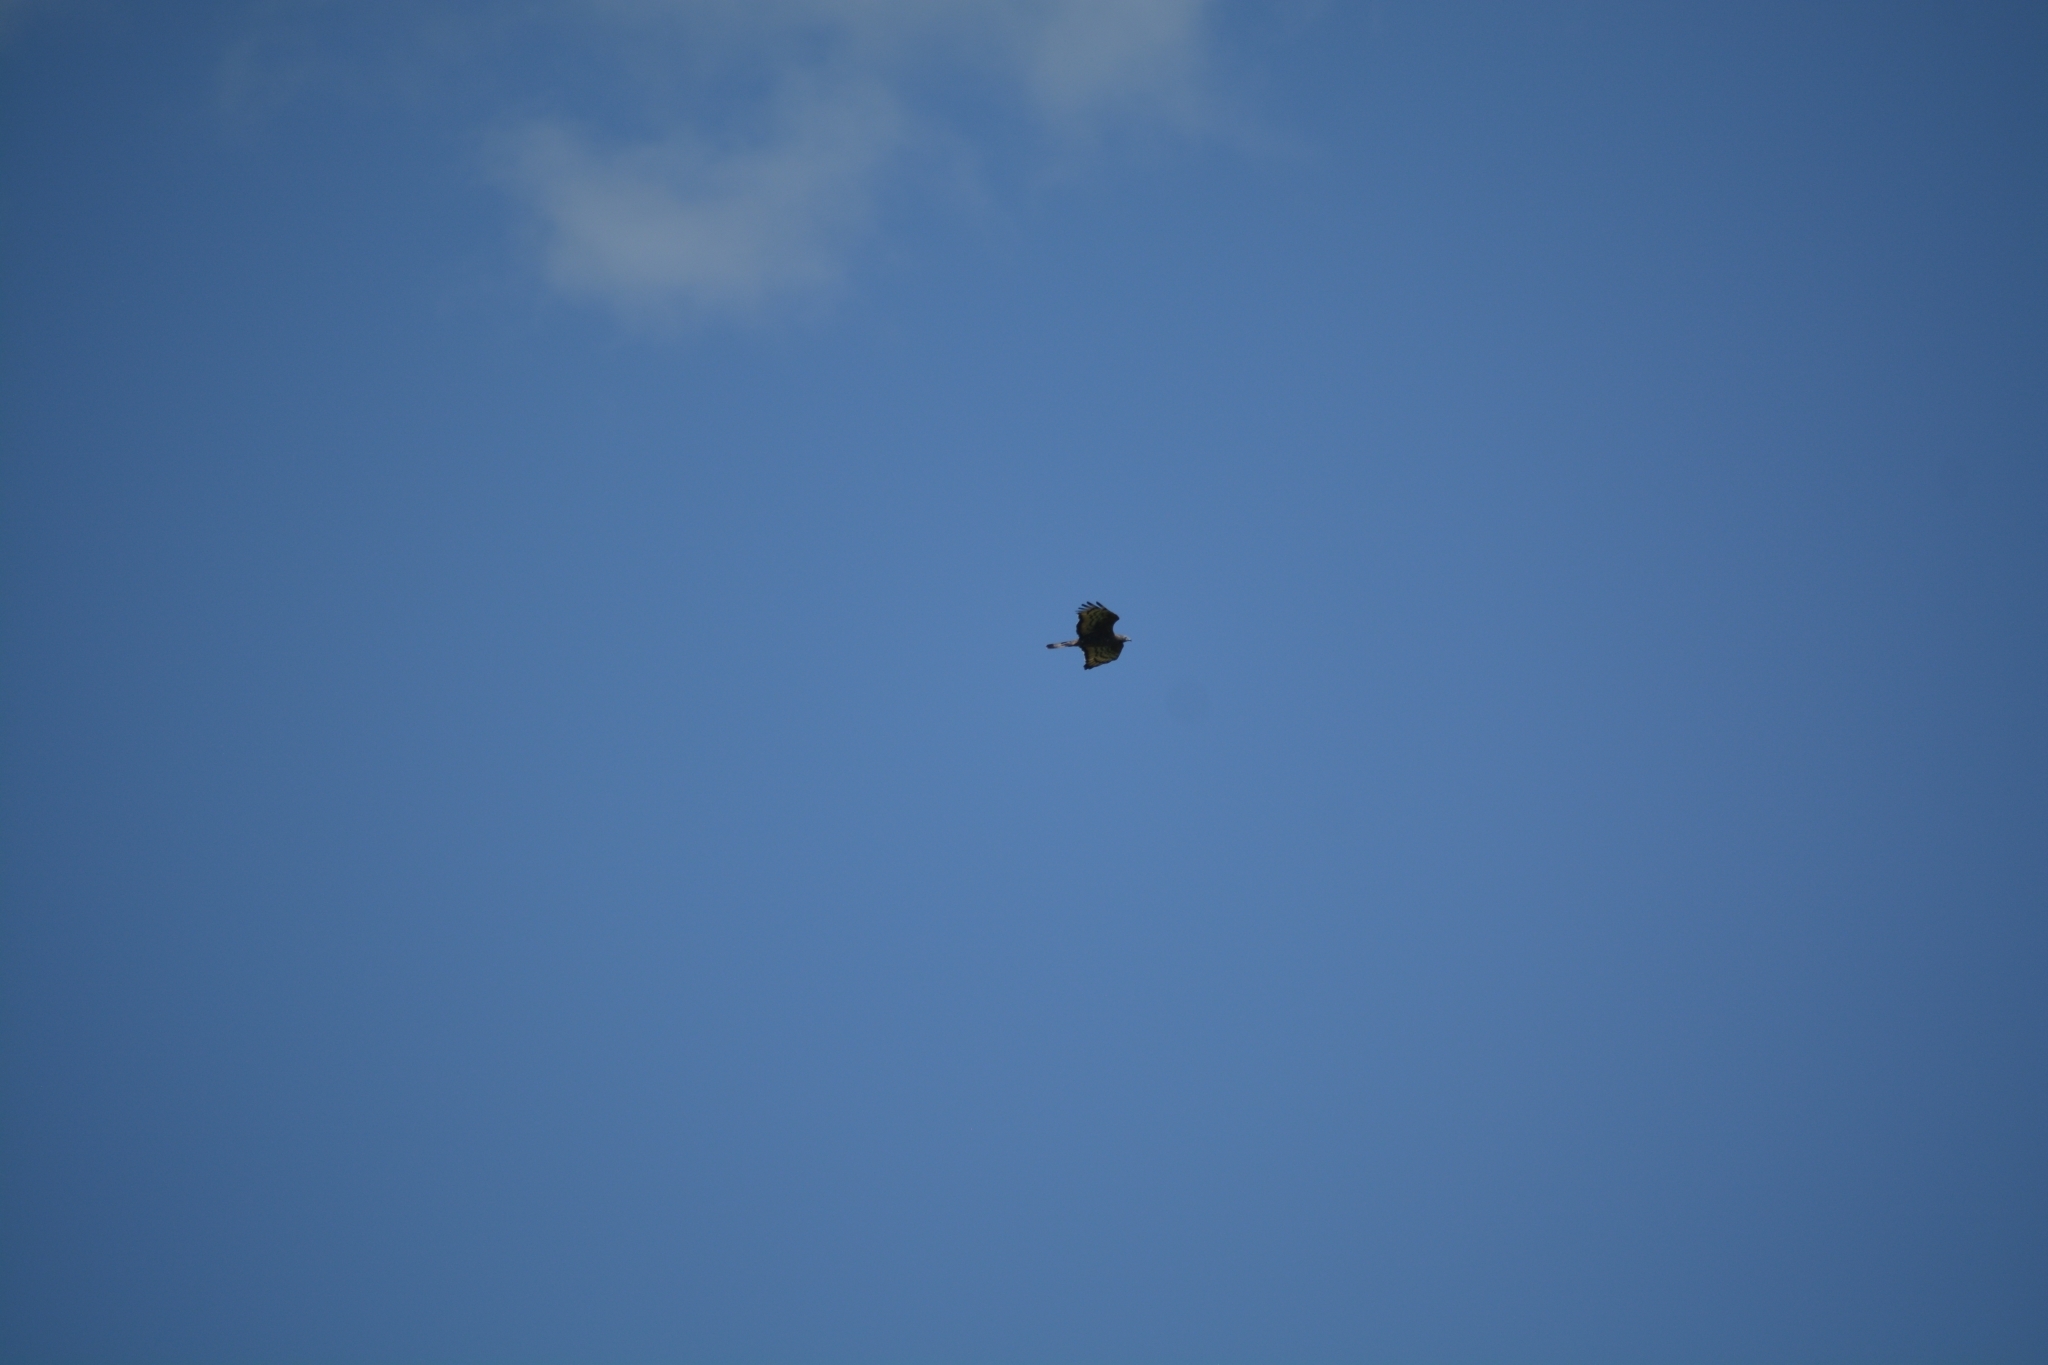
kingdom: Animalia
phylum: Chordata
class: Aves
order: Accipitriformes
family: Accipitridae
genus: Pernis
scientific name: Pernis ptilorhynchus
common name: Crested honey buzzard
